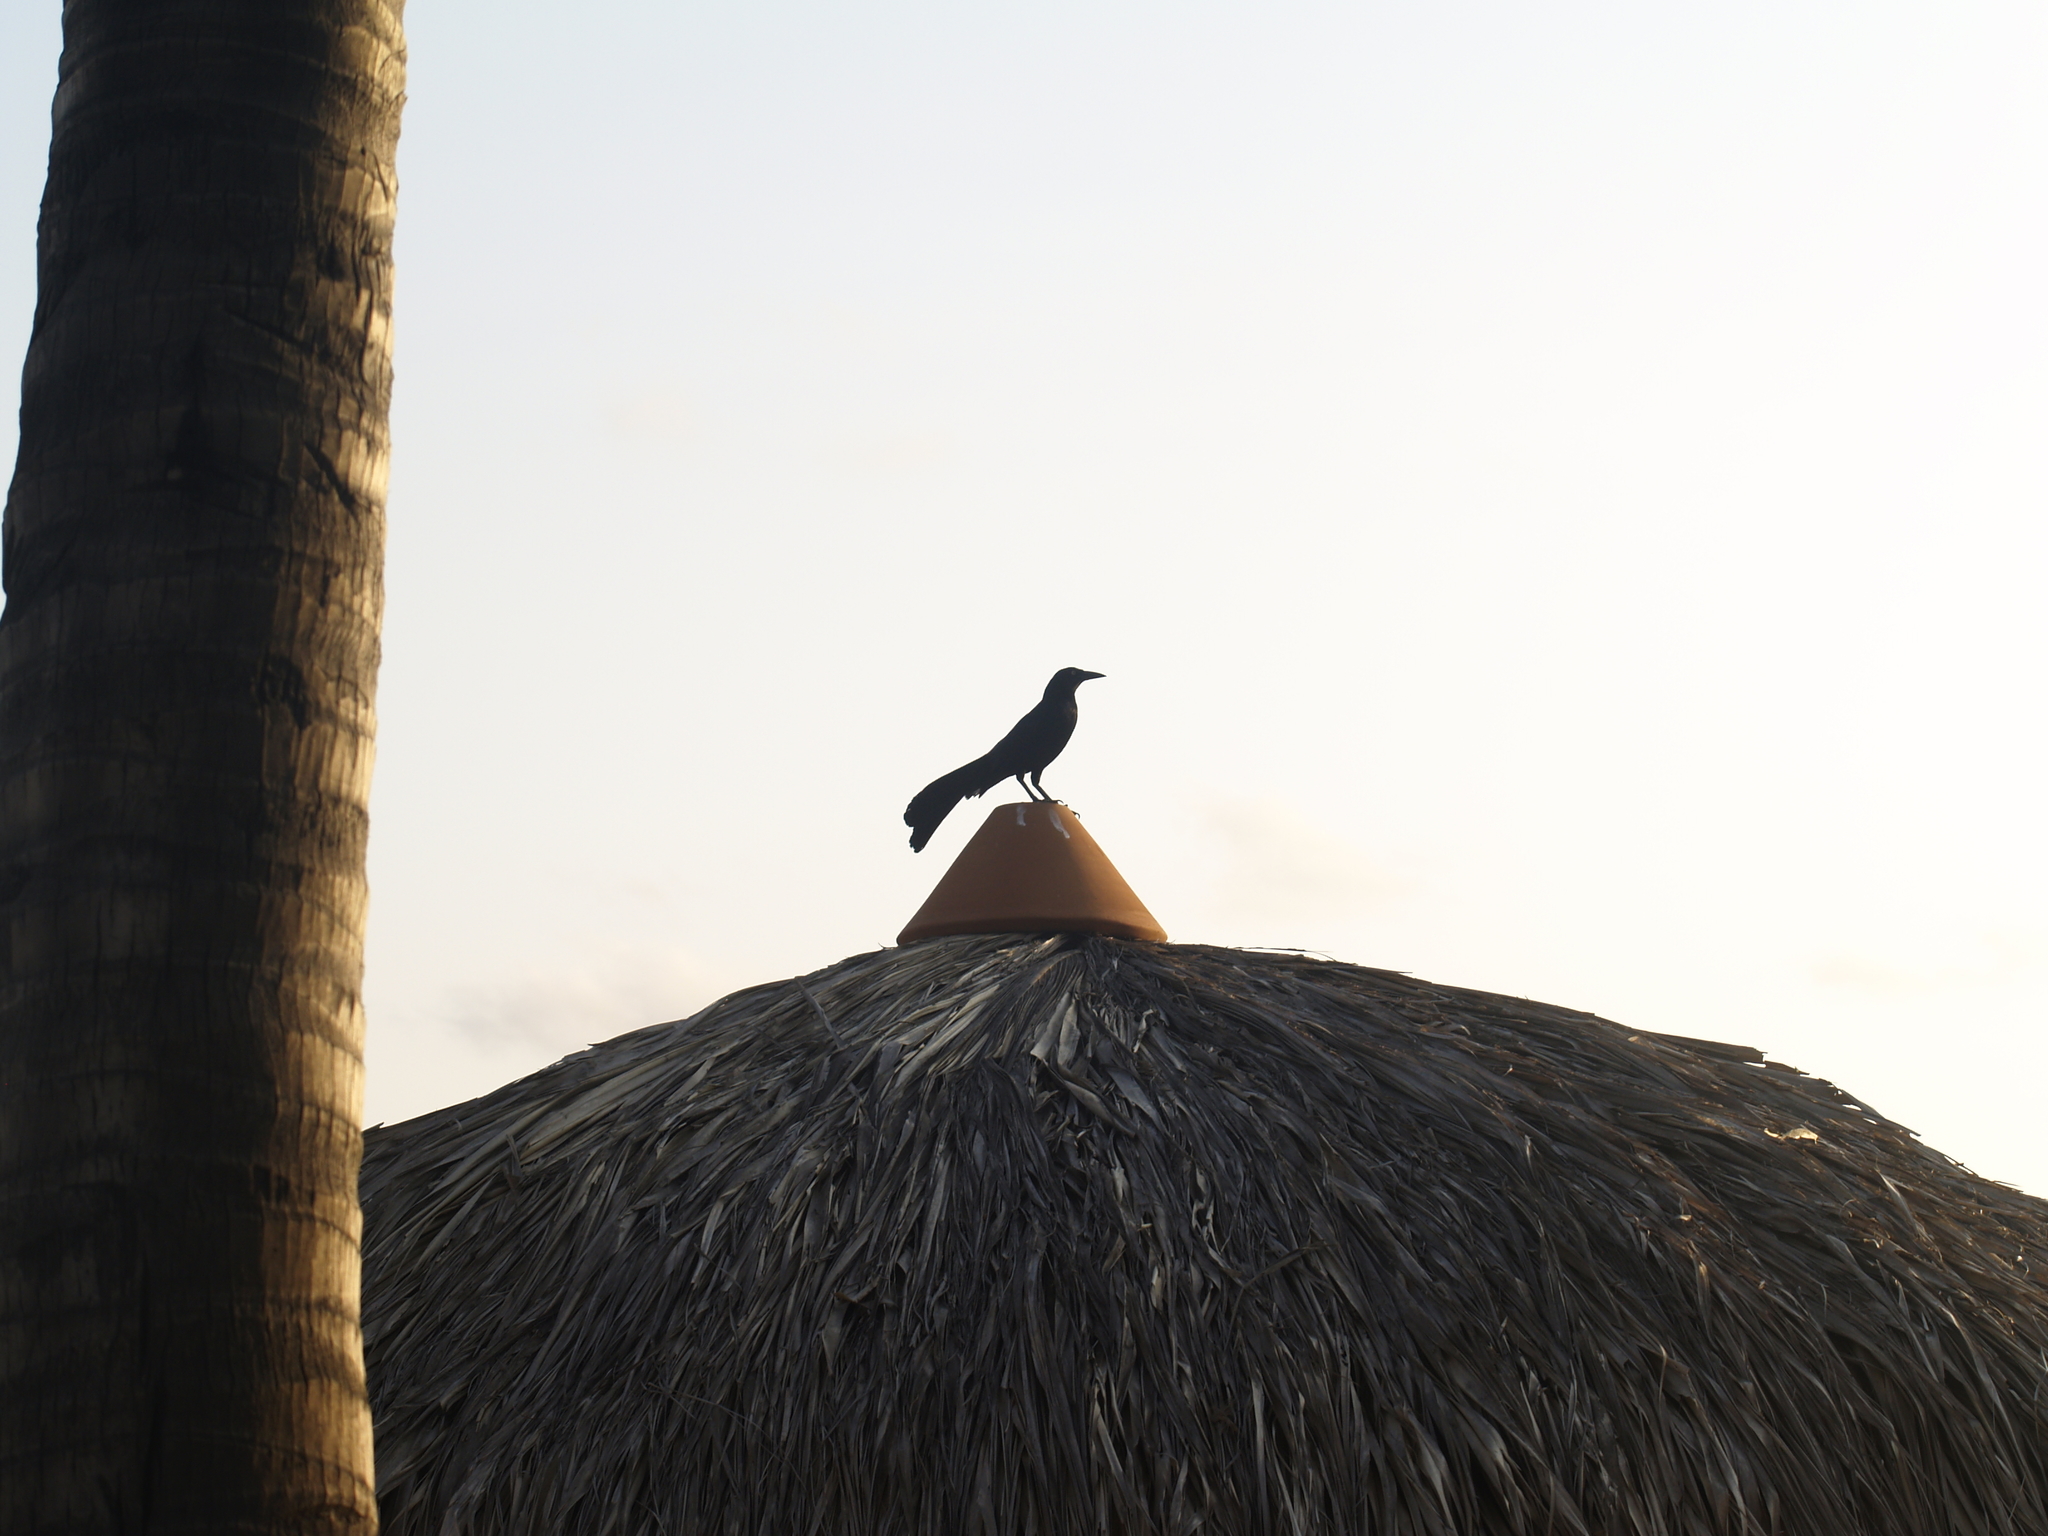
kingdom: Animalia
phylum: Chordata
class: Aves
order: Passeriformes
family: Icteridae
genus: Quiscalus
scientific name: Quiscalus mexicanus
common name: Great-tailed grackle
